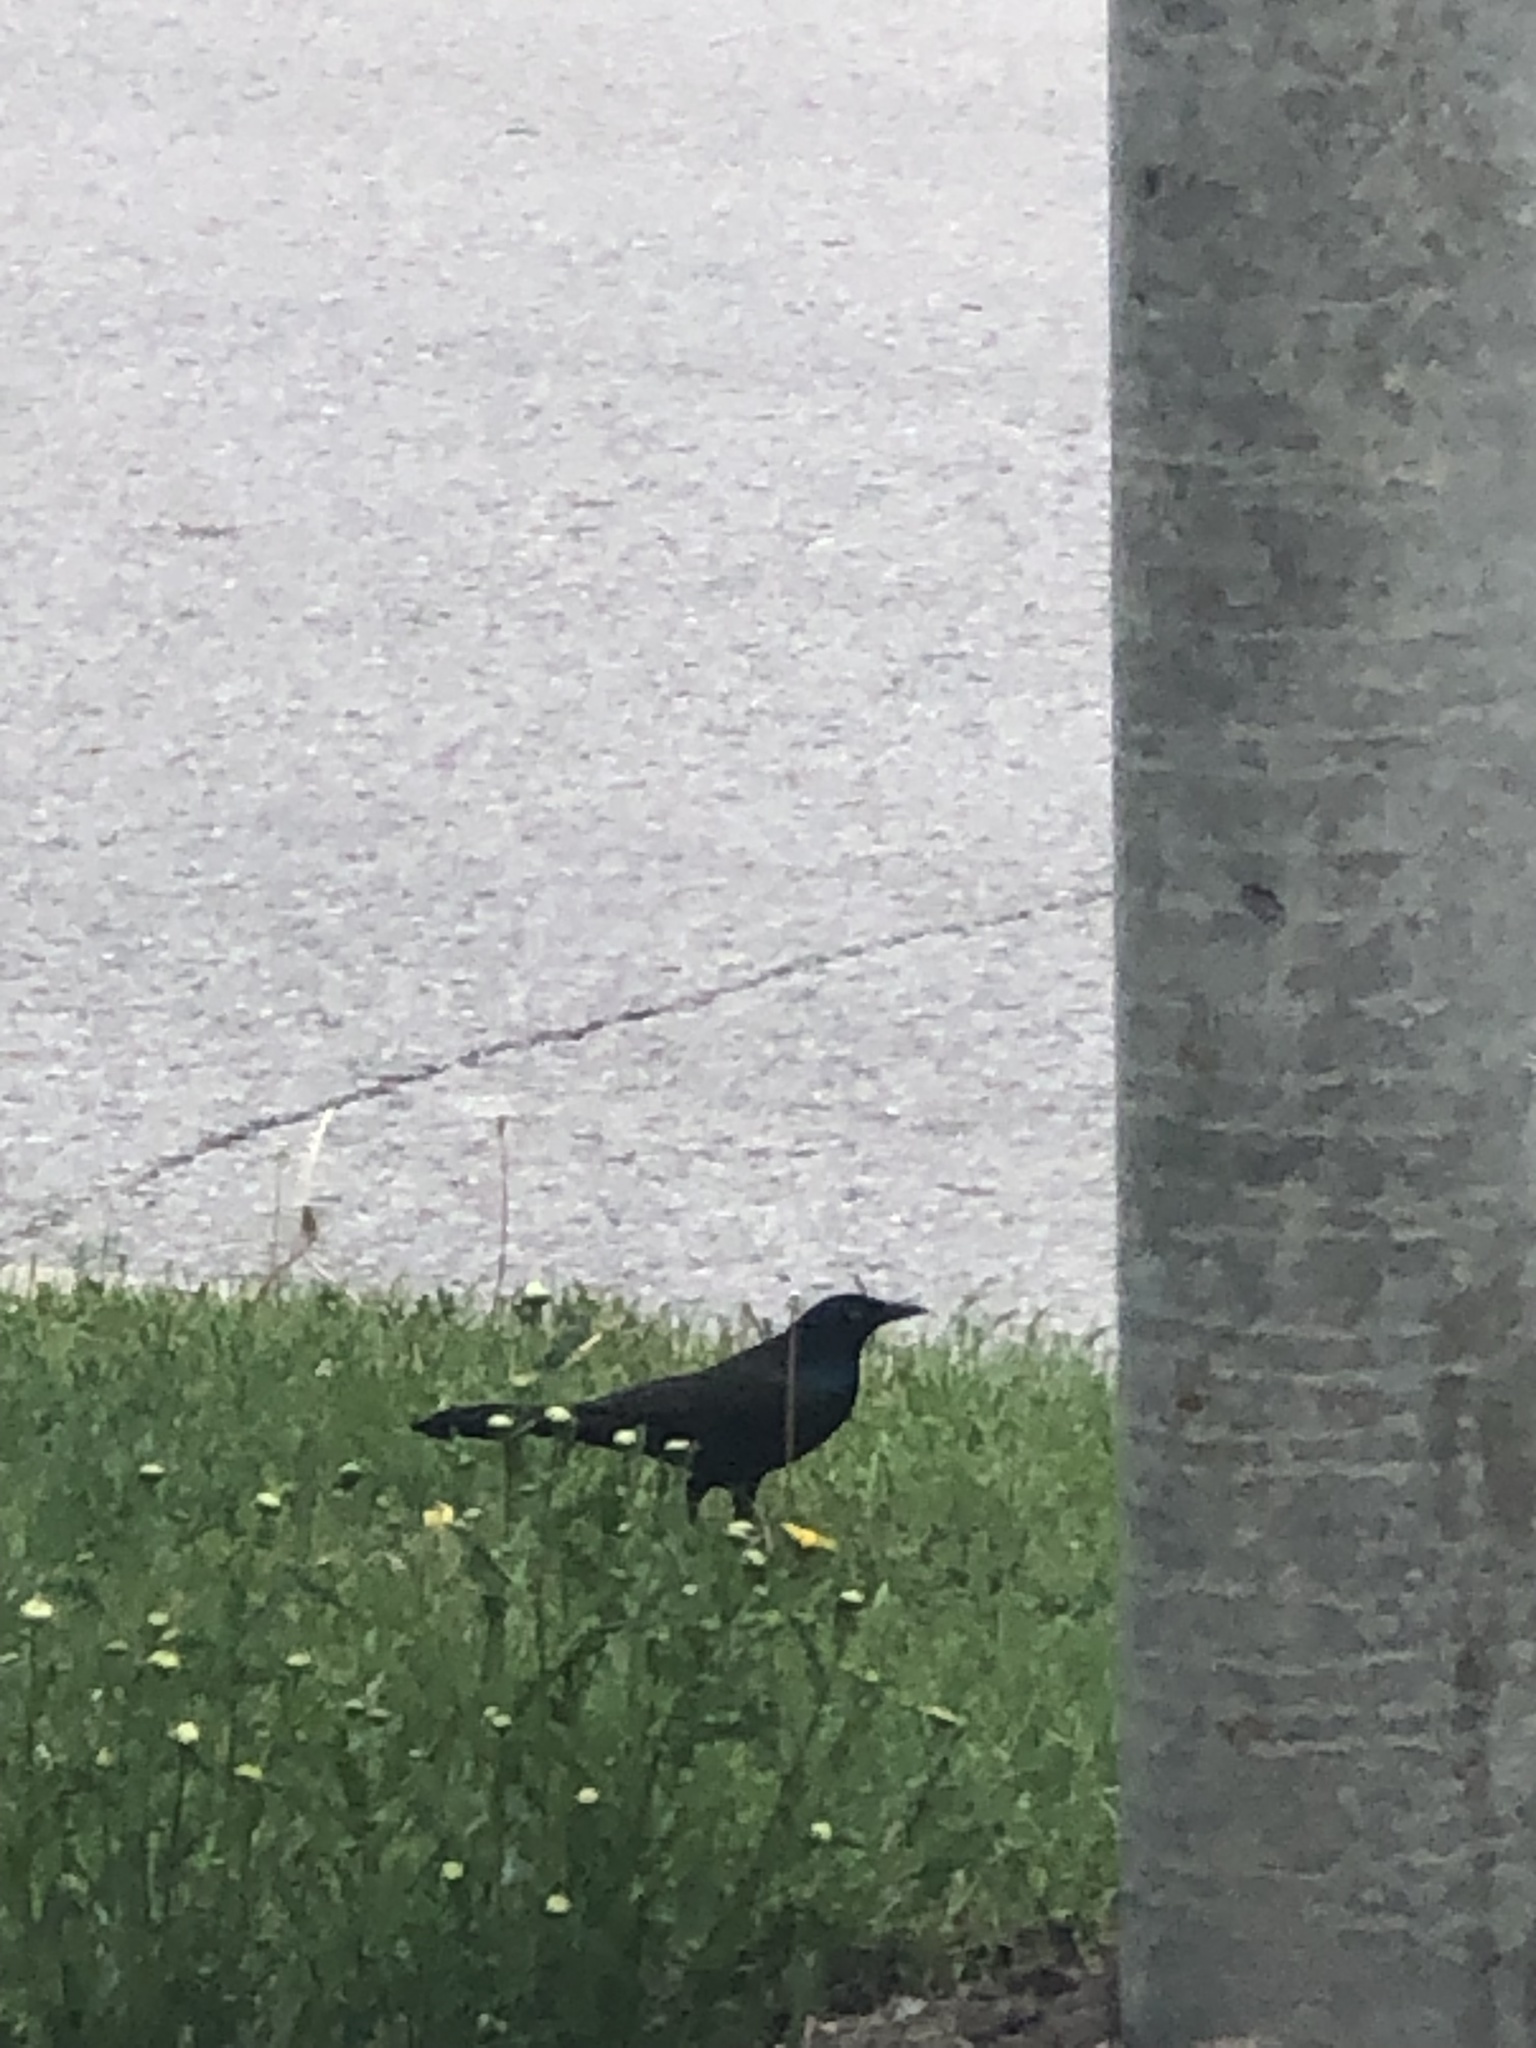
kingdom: Animalia
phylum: Chordata
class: Aves
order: Passeriformes
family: Icteridae
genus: Quiscalus
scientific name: Quiscalus quiscula
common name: Common grackle
